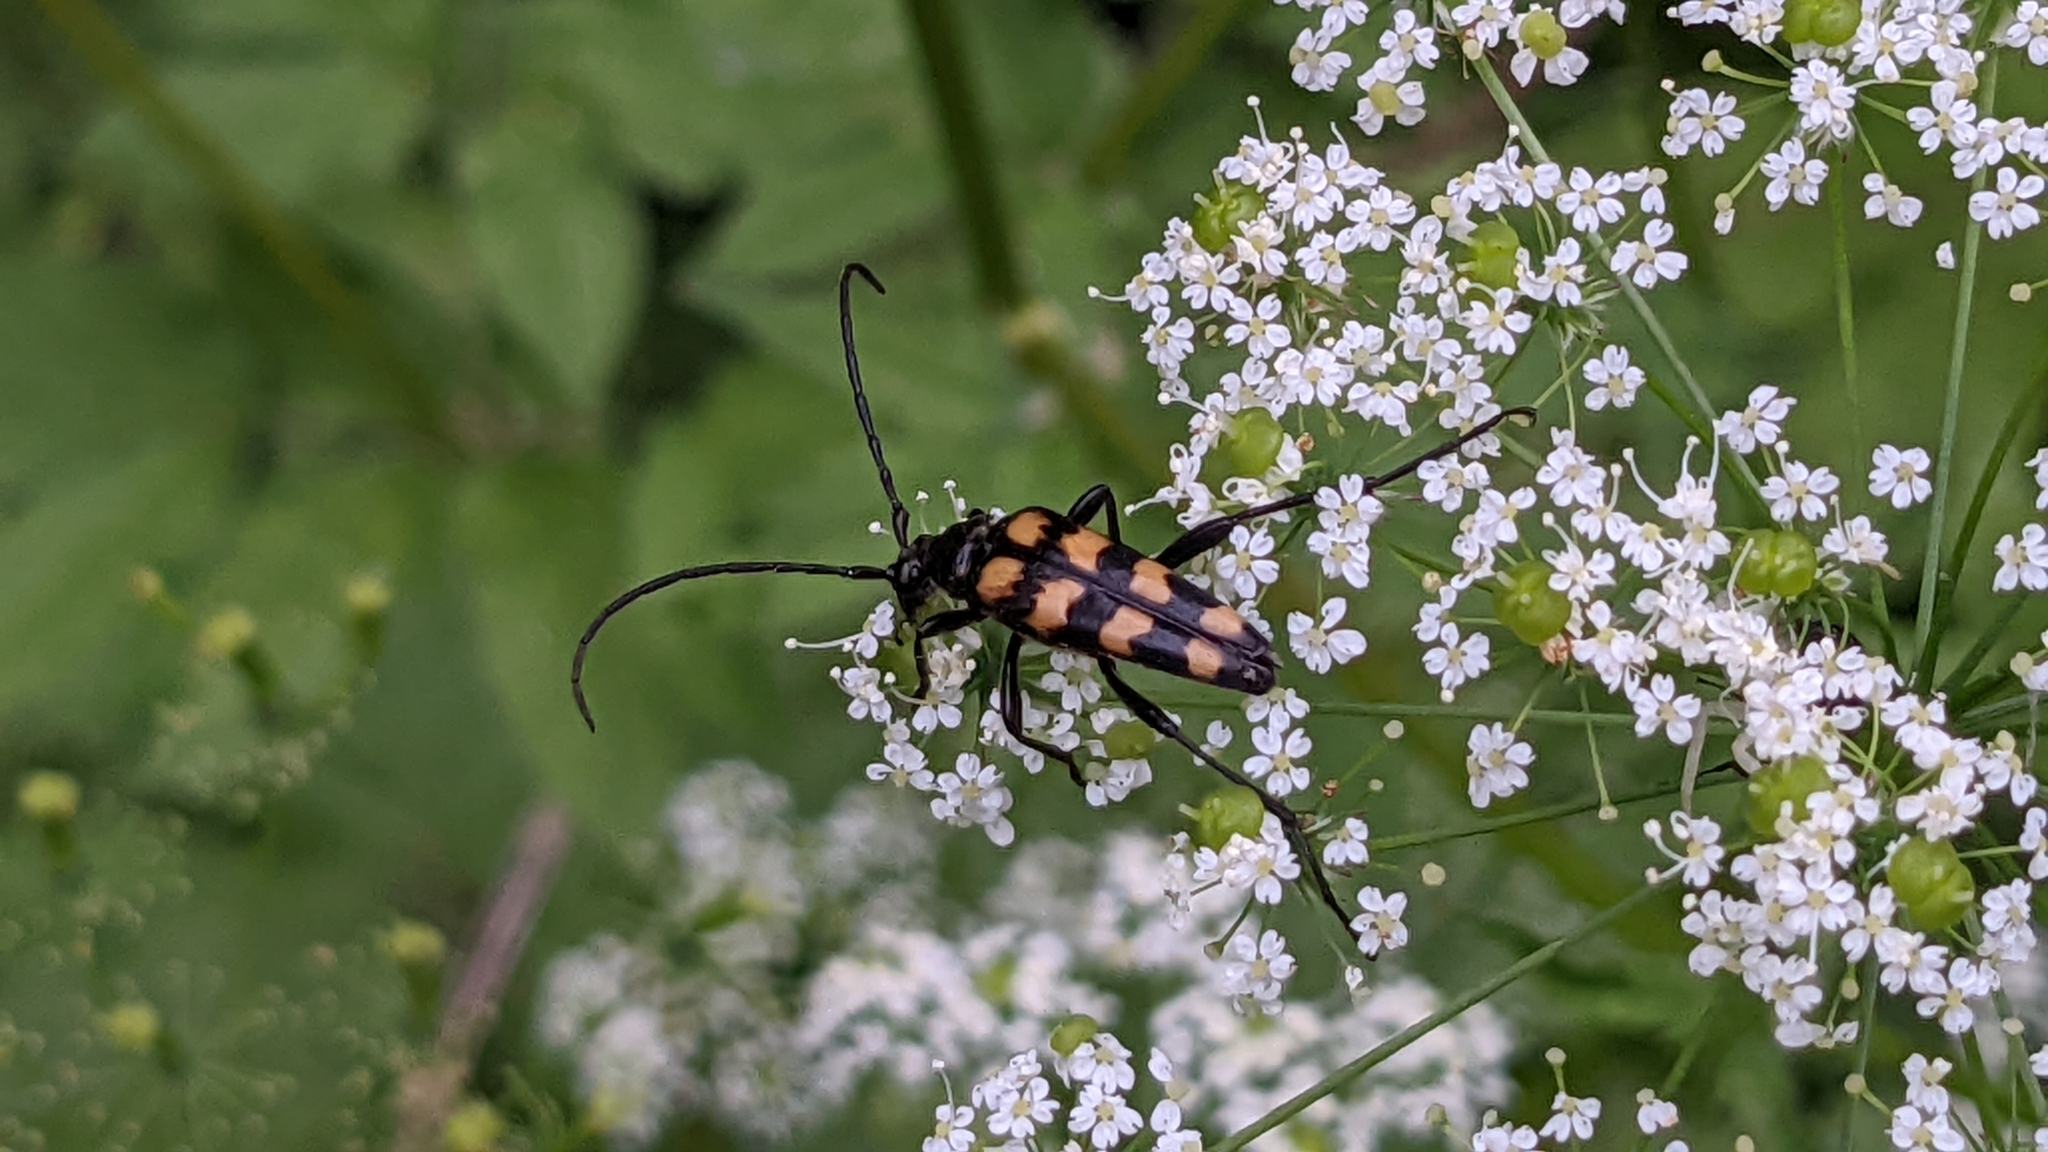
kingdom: Animalia
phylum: Arthropoda
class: Insecta
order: Coleoptera
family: Cerambycidae
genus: Leptura
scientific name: Leptura quadrifasciata
